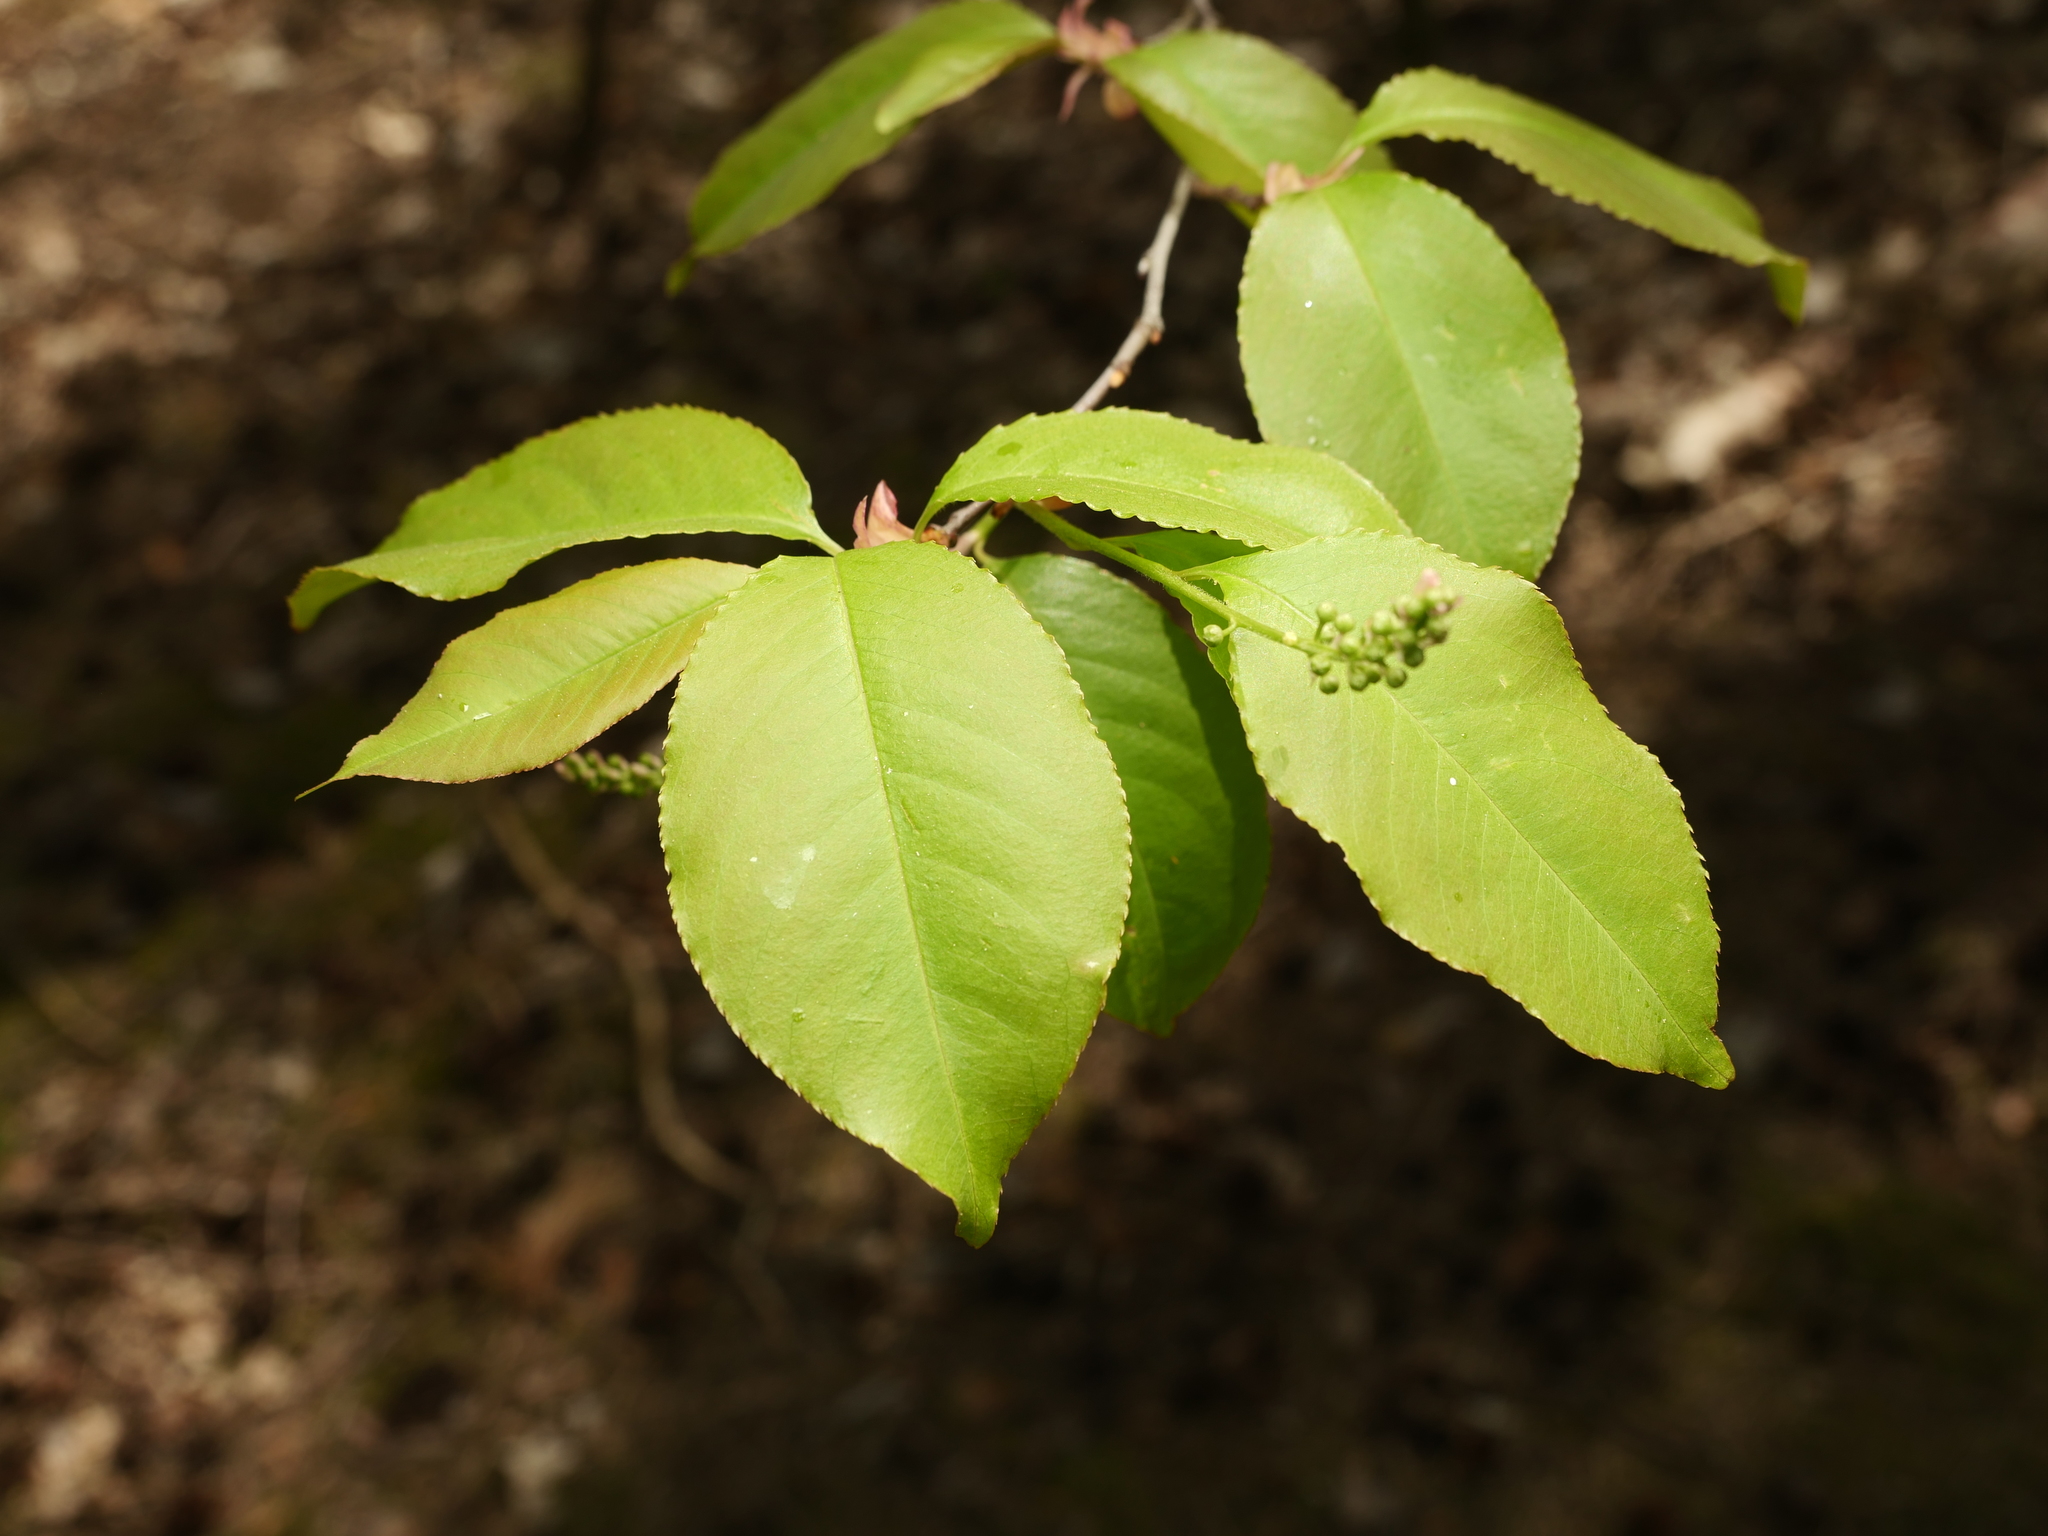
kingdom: Plantae
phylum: Tracheophyta
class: Magnoliopsida
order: Rosales
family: Rosaceae
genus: Prunus
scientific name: Prunus serotina
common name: Black cherry
